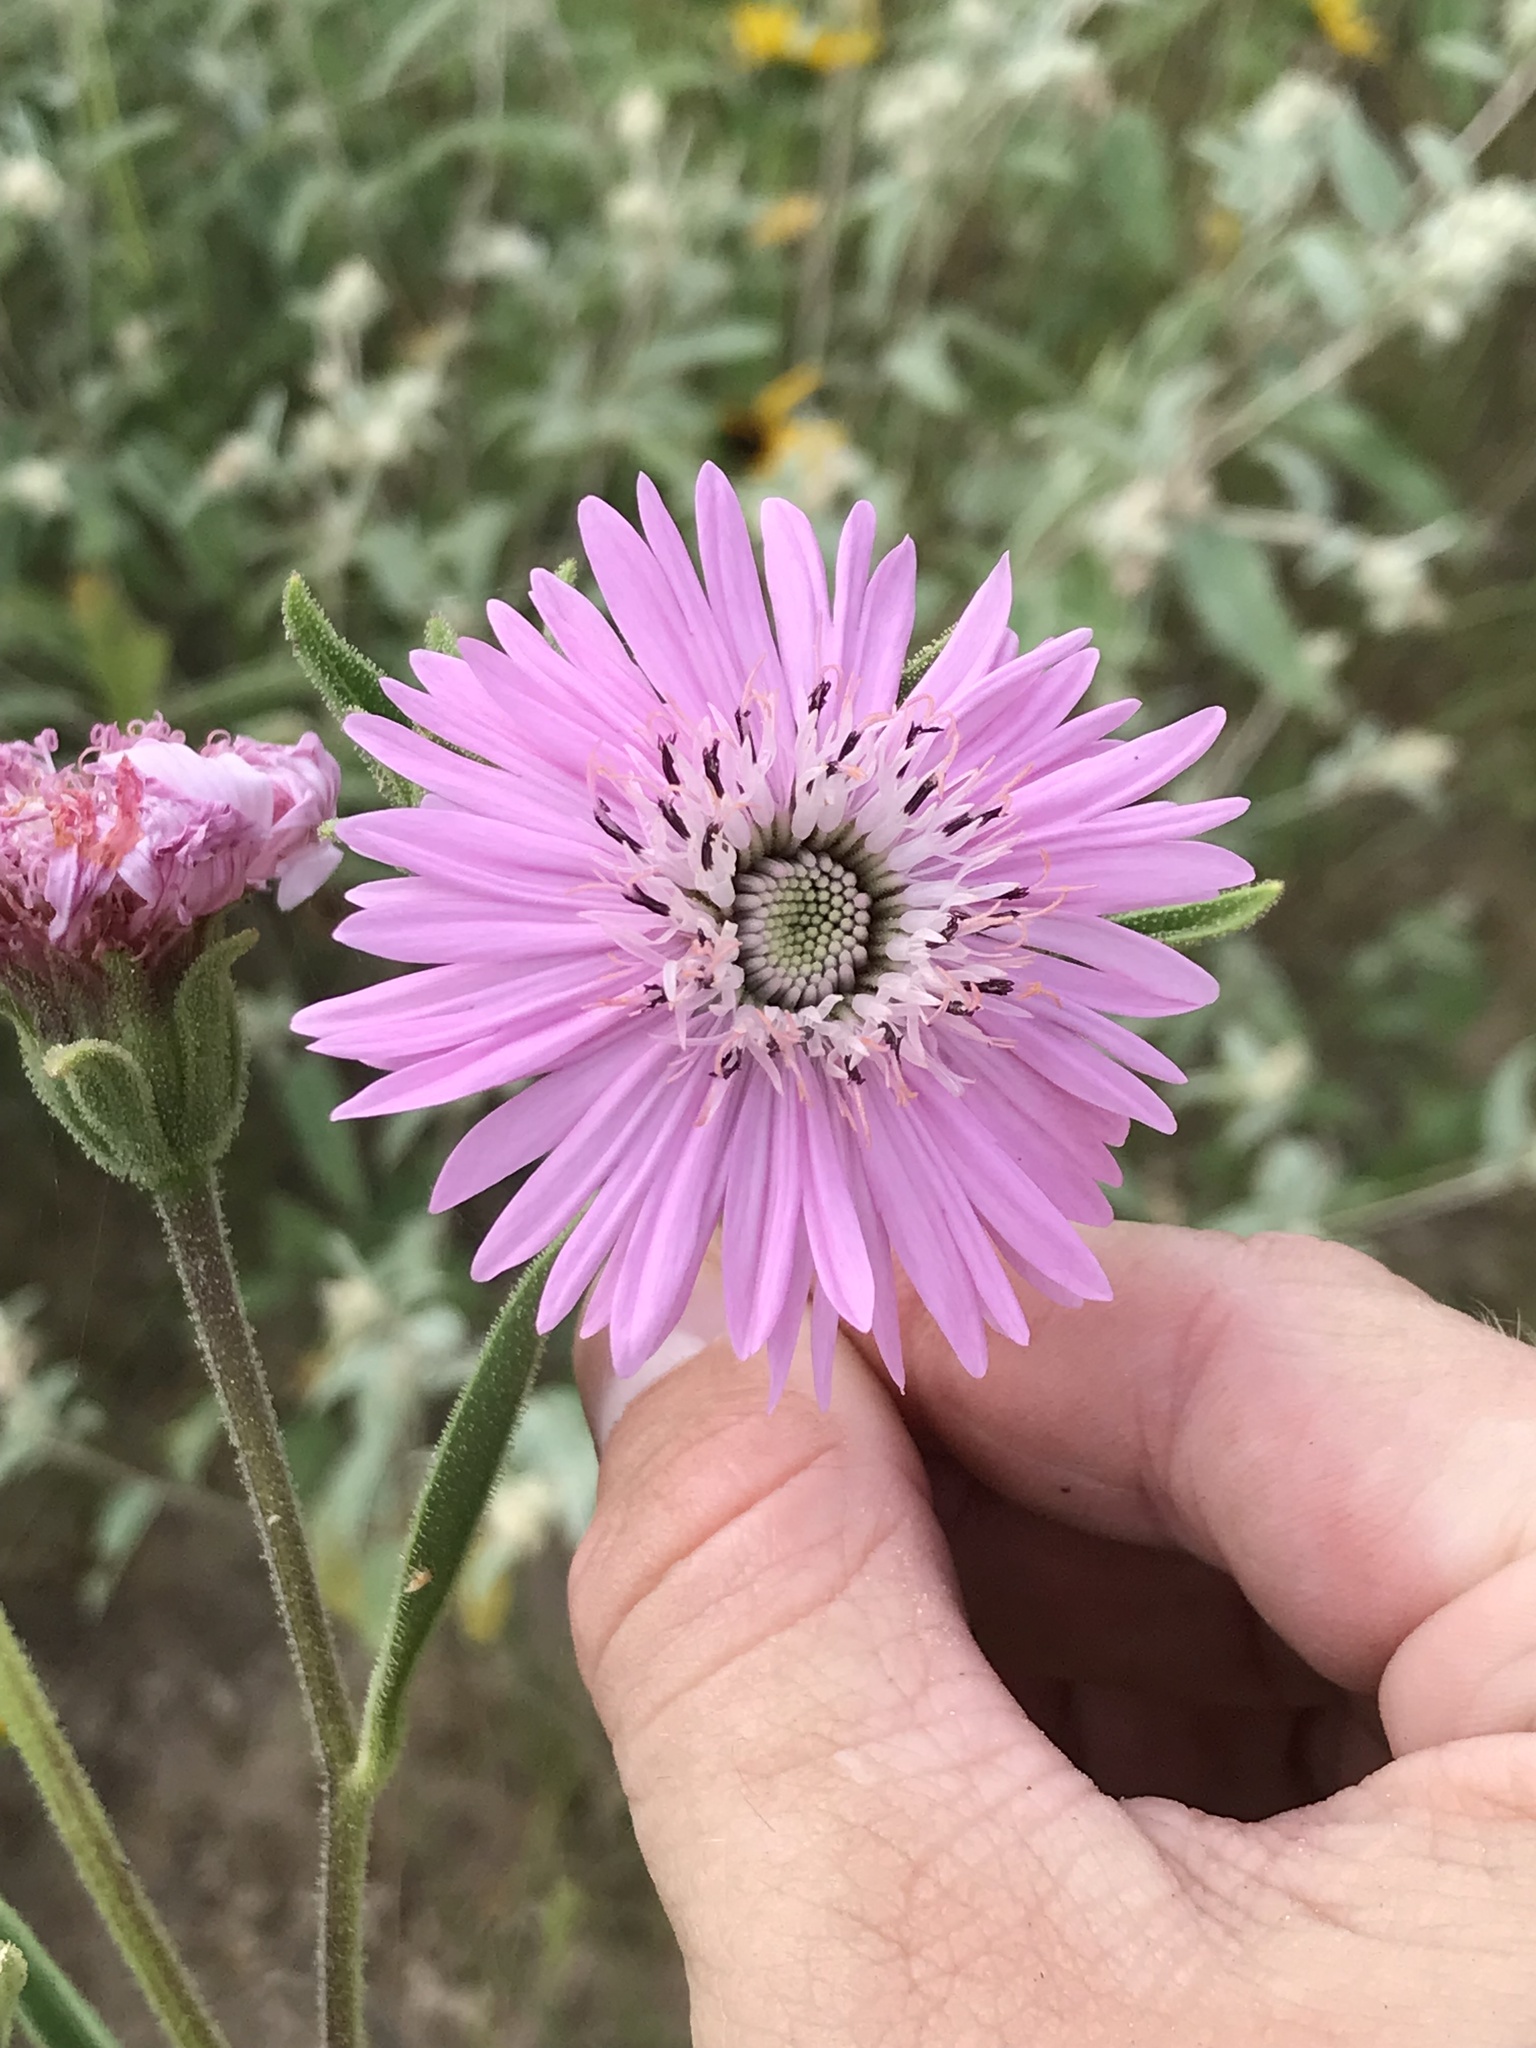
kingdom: Plantae
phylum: Tracheophyta
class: Magnoliopsida
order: Asterales
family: Asteraceae
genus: Palafoxia
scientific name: Palafoxia hookeriana
